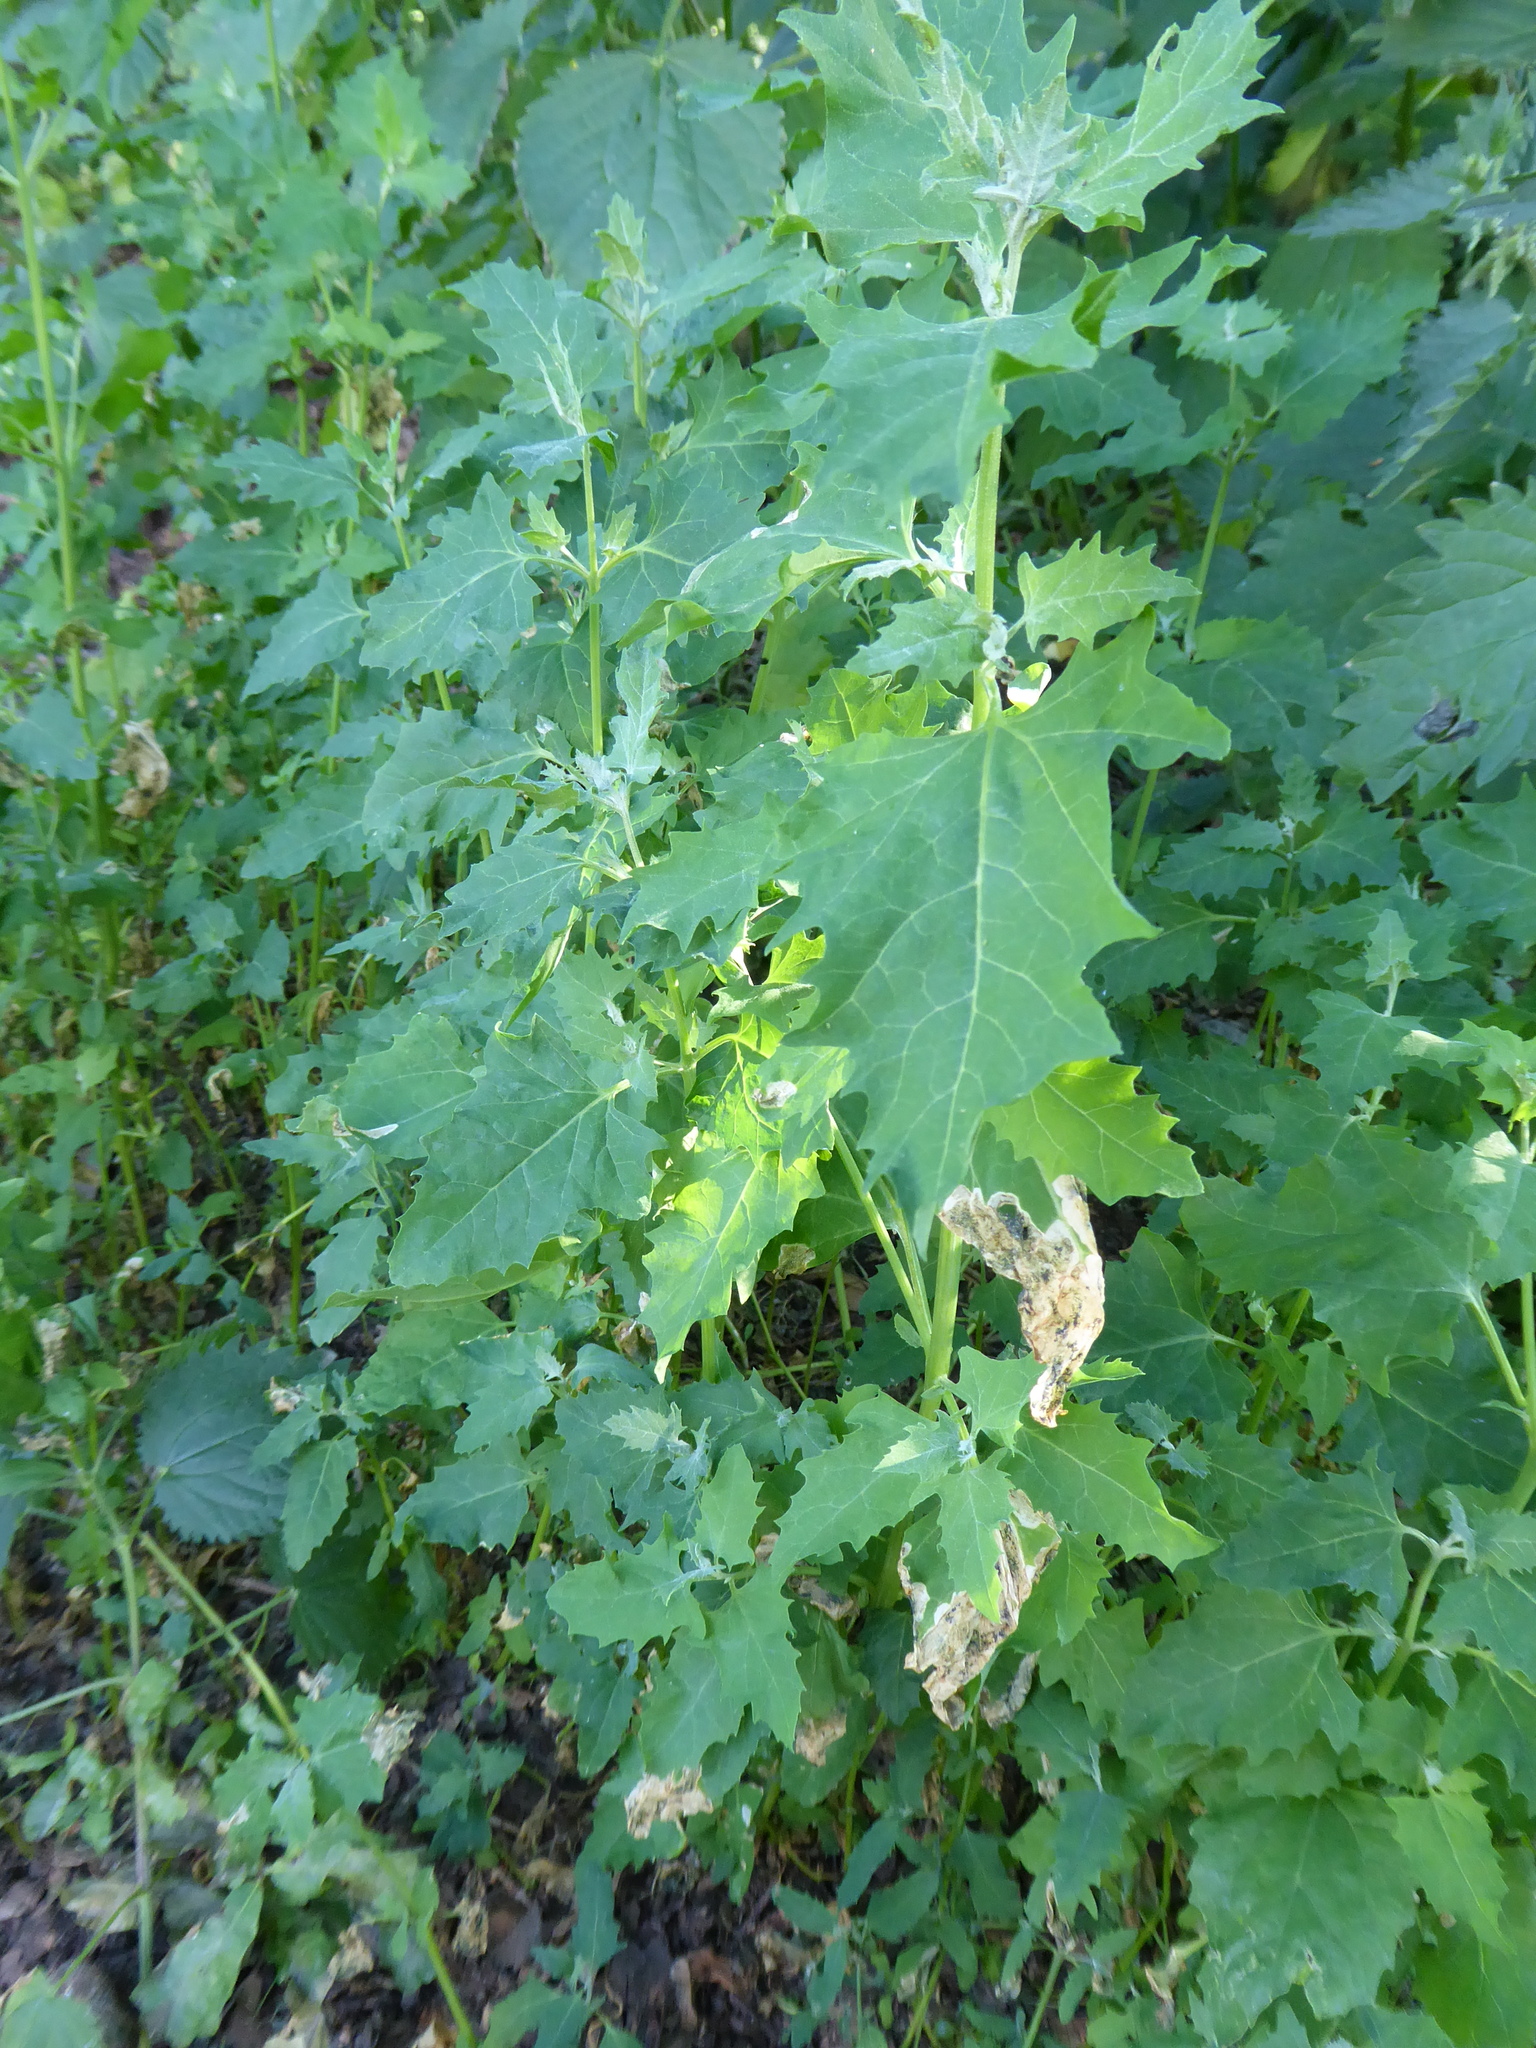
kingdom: Plantae
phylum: Tracheophyta
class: Magnoliopsida
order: Caryophyllales
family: Amaranthaceae
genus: Chenopodium
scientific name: Chenopodium album
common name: Fat-hen
